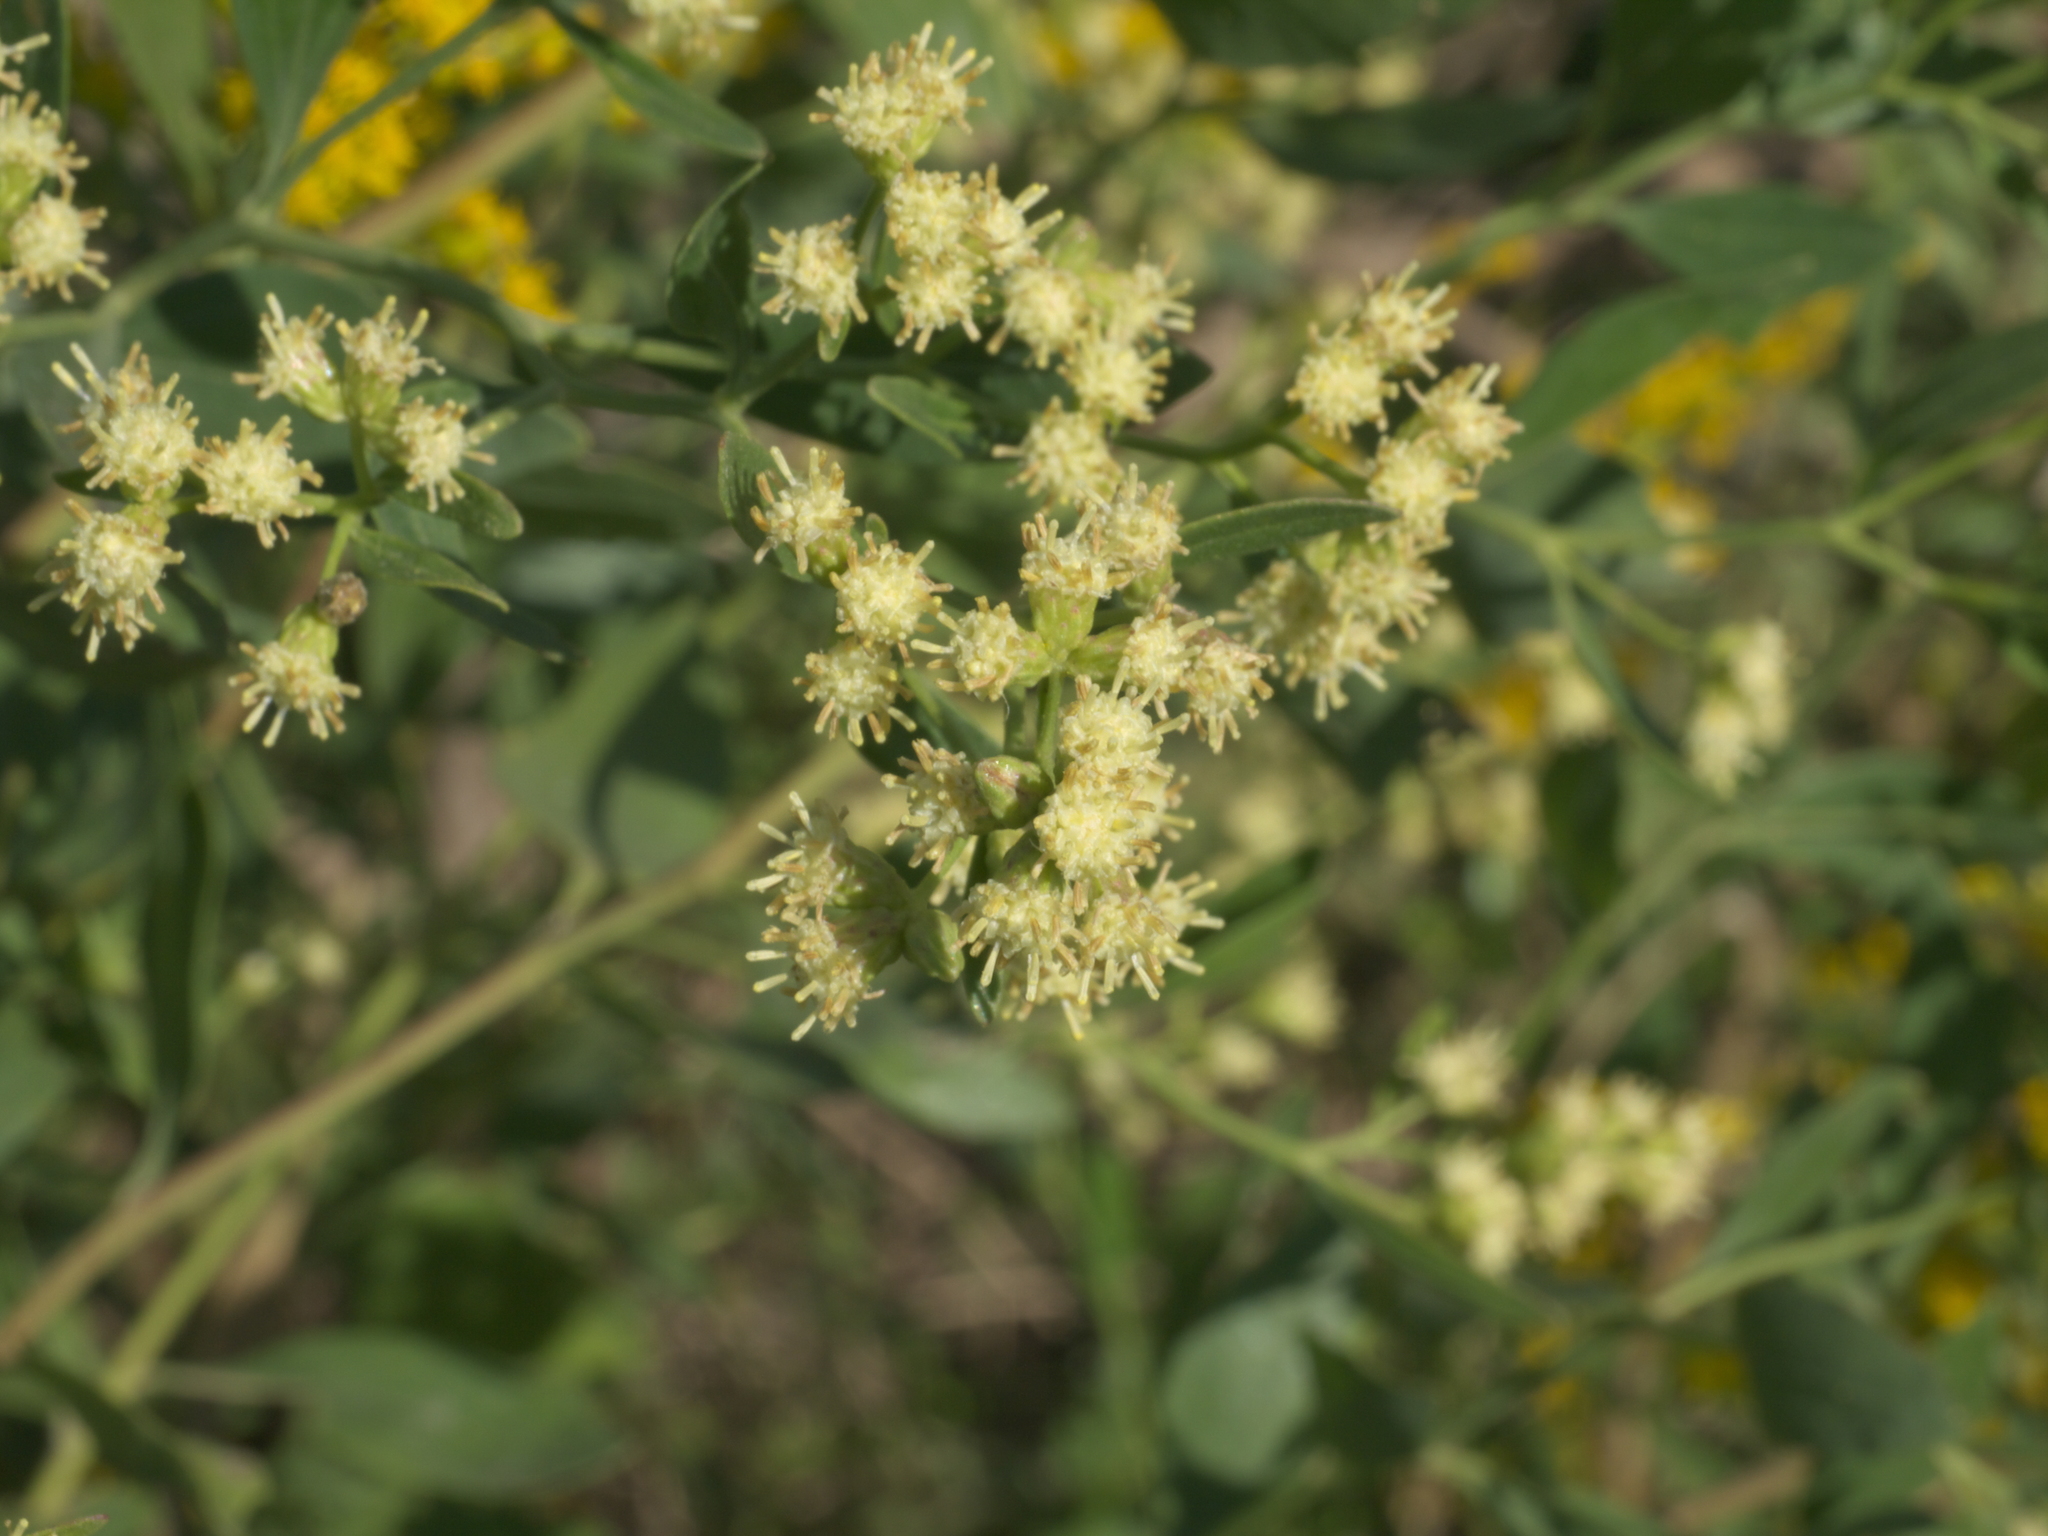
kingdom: Plantae
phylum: Tracheophyta
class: Magnoliopsida
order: Asterales
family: Asteraceae
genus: Baccharis
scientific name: Baccharis halimifolia
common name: Eastern baccharis
